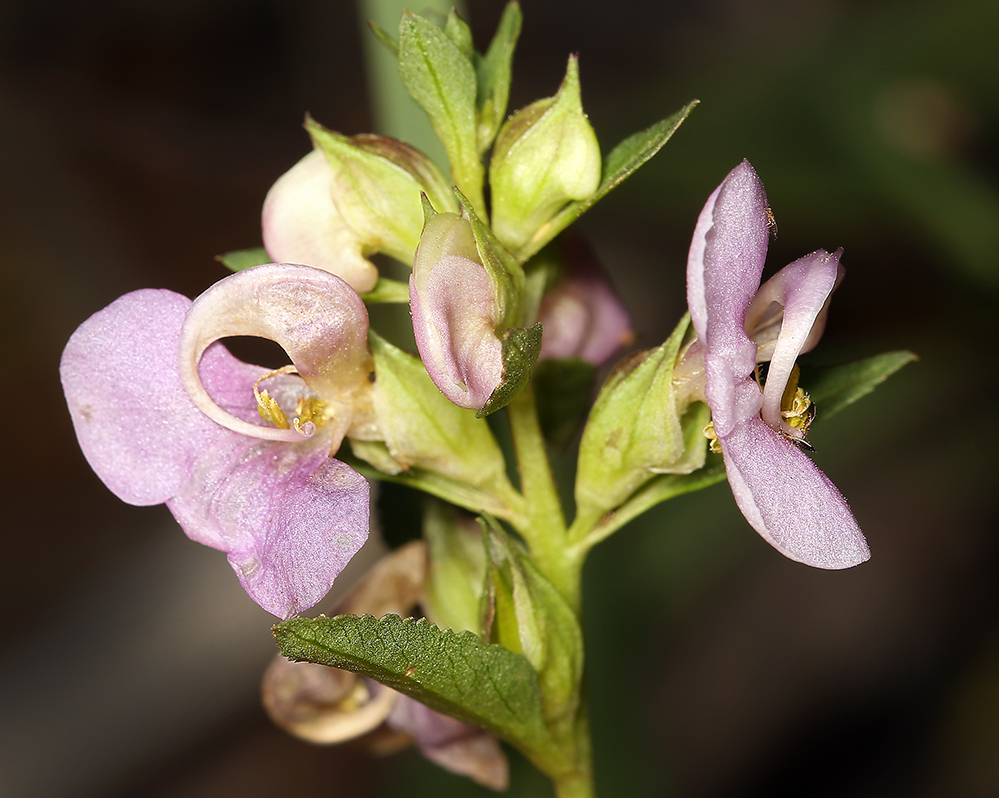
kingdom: Plantae
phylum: Tracheophyta
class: Magnoliopsida
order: Lamiales
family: Orobanchaceae
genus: Pedicularis
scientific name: Pedicularis racemosa
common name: Leafy lousewort
